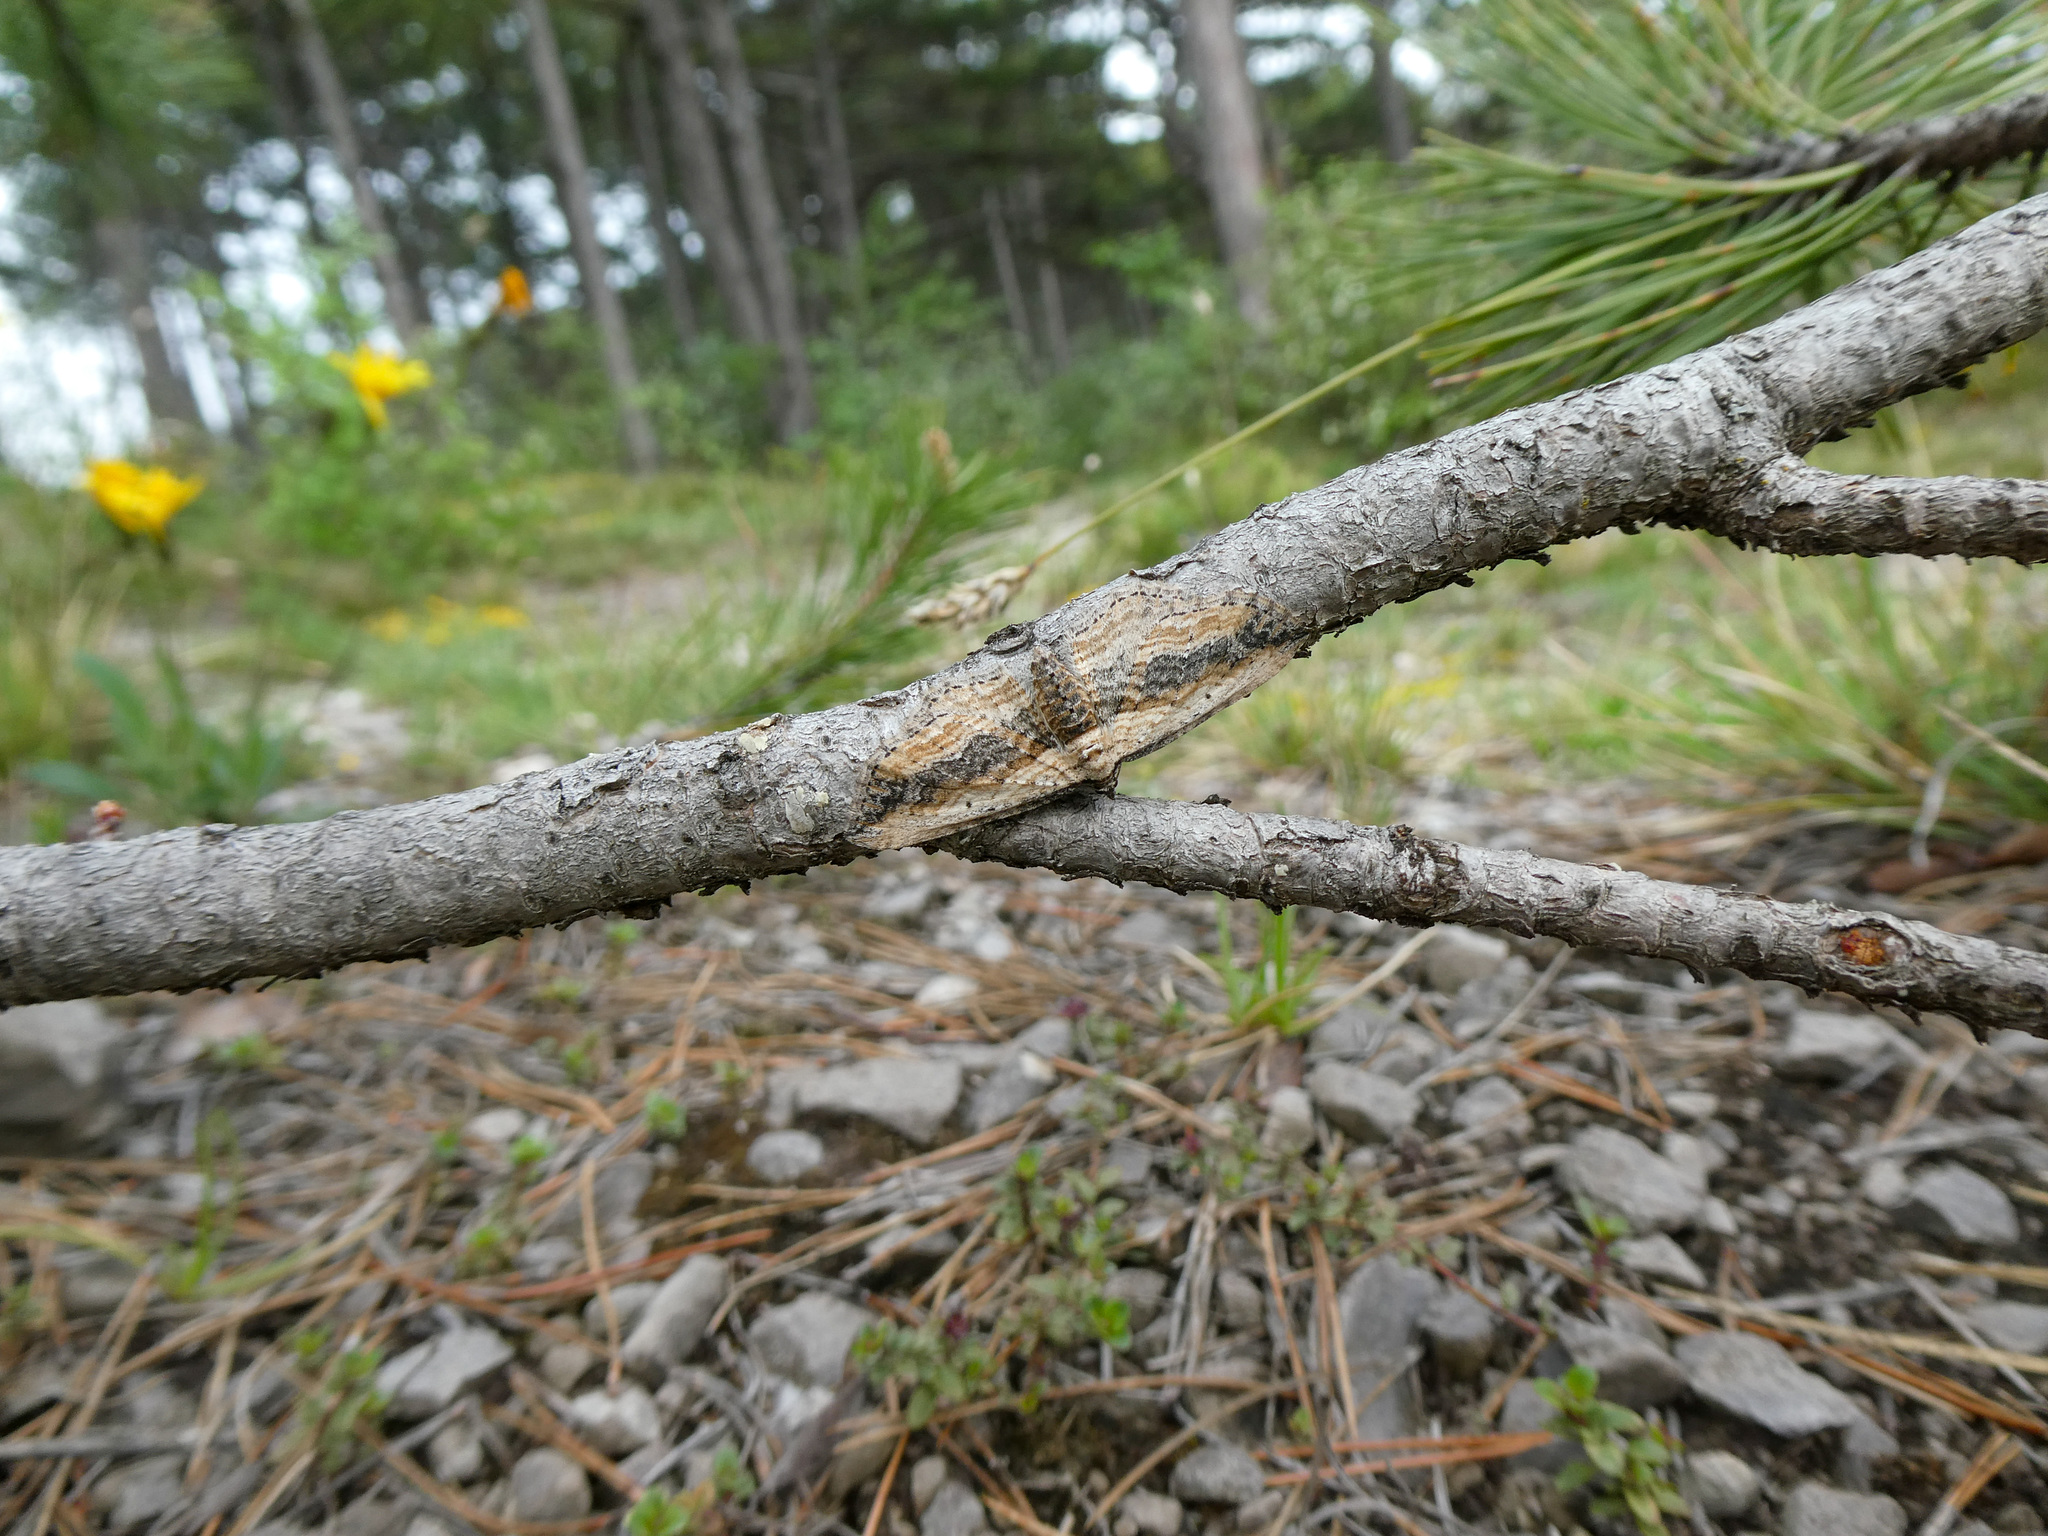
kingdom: Animalia
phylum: Arthropoda
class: Insecta
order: Lepidoptera
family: Geometridae
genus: Horisme
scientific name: Horisme vitalbata
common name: Small waved umber
